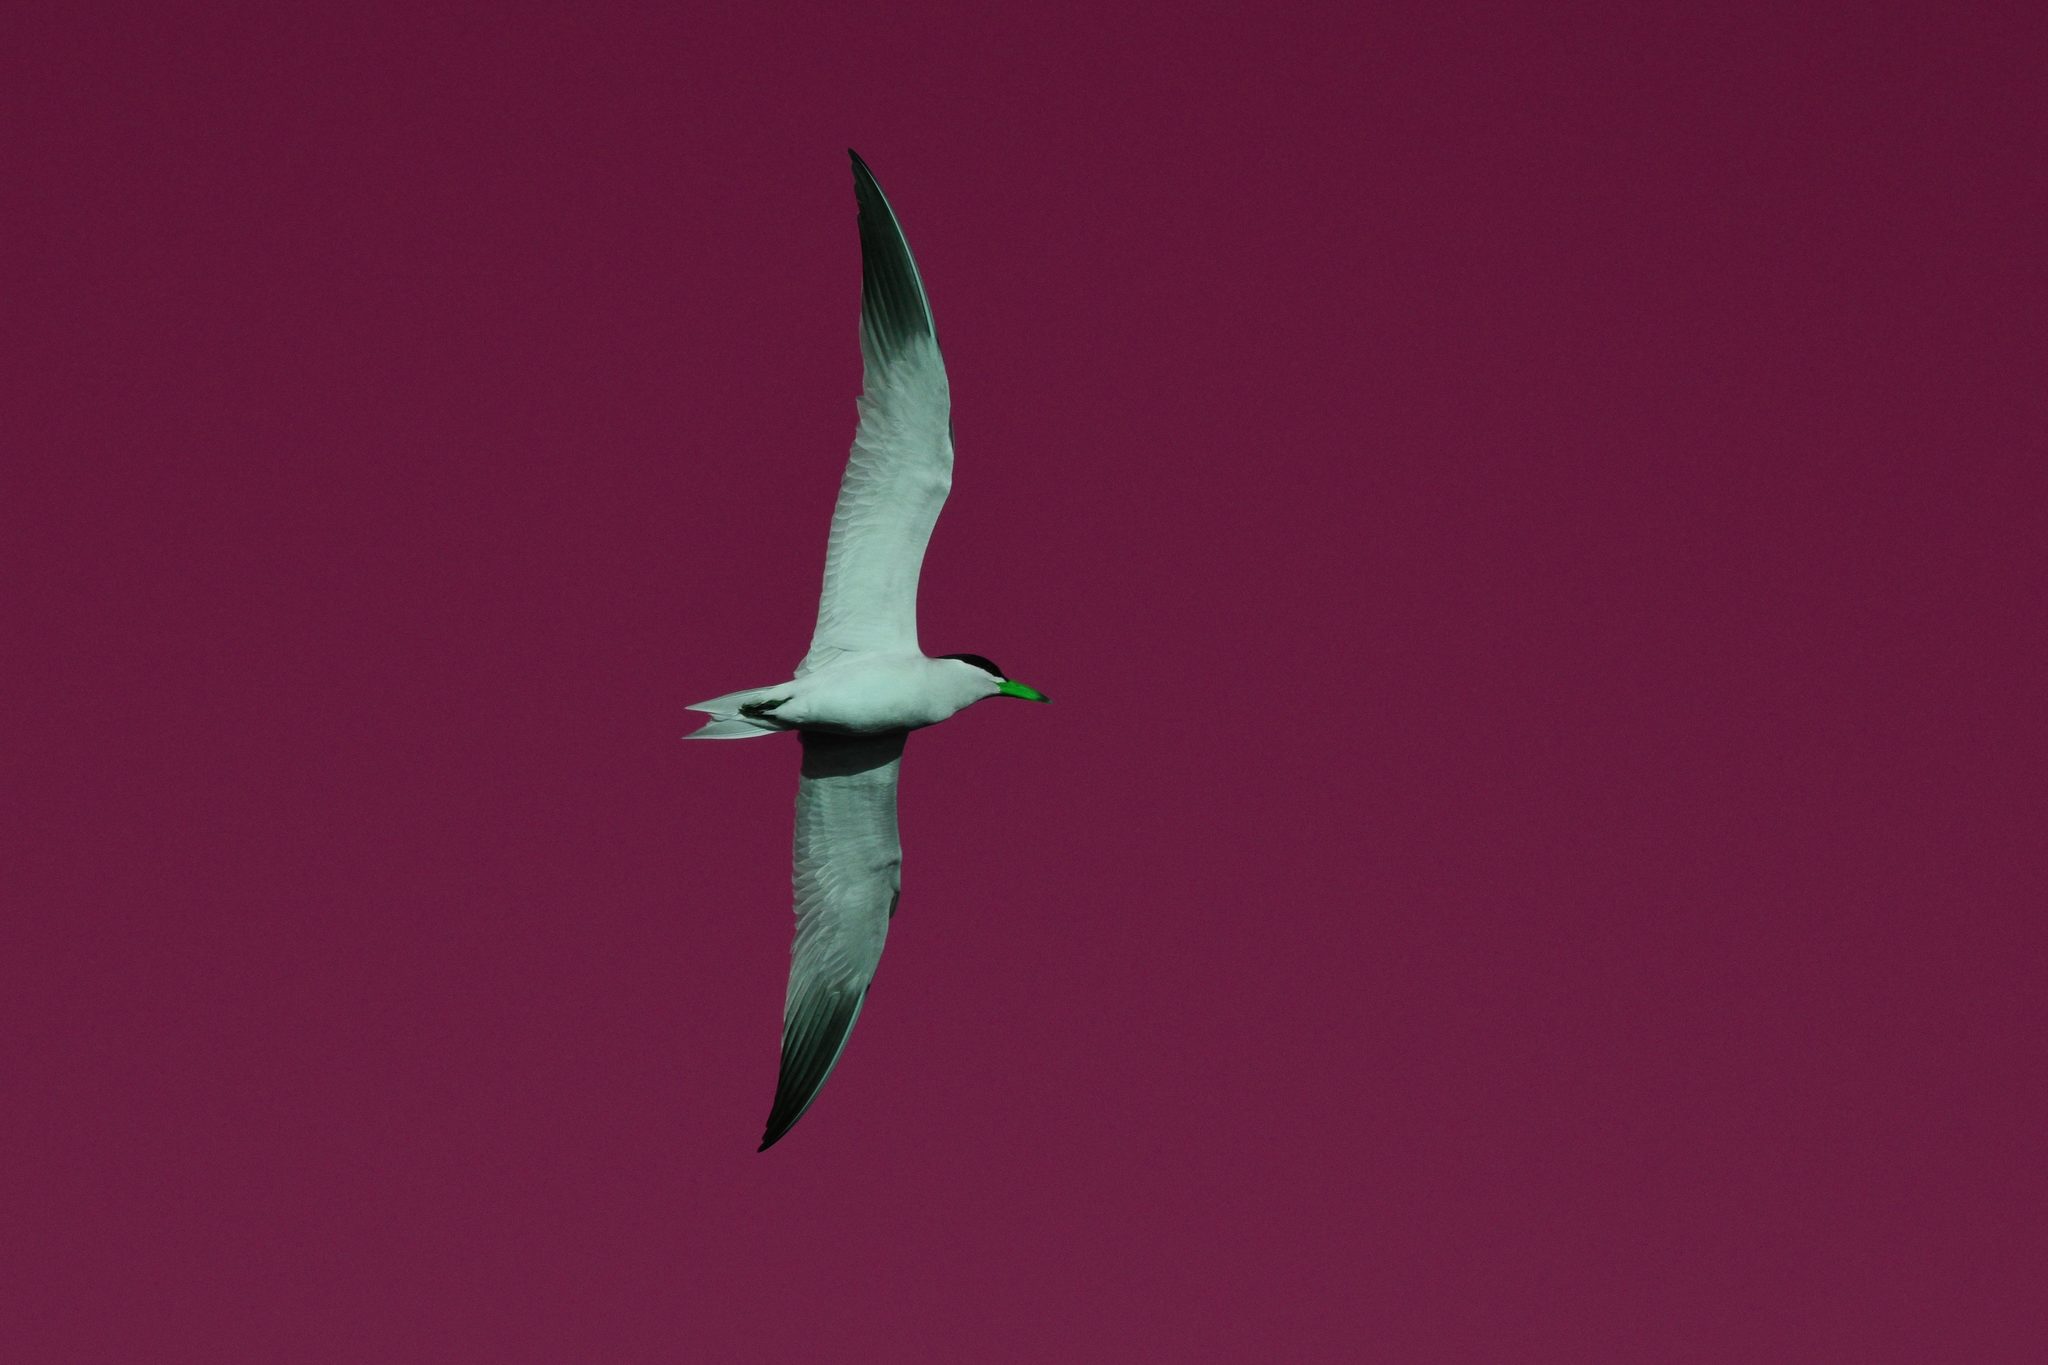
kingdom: Animalia
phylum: Chordata
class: Aves
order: Charadriiformes
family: Laridae
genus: Hydroprogne
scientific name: Hydroprogne caspia
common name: Caspian tern
